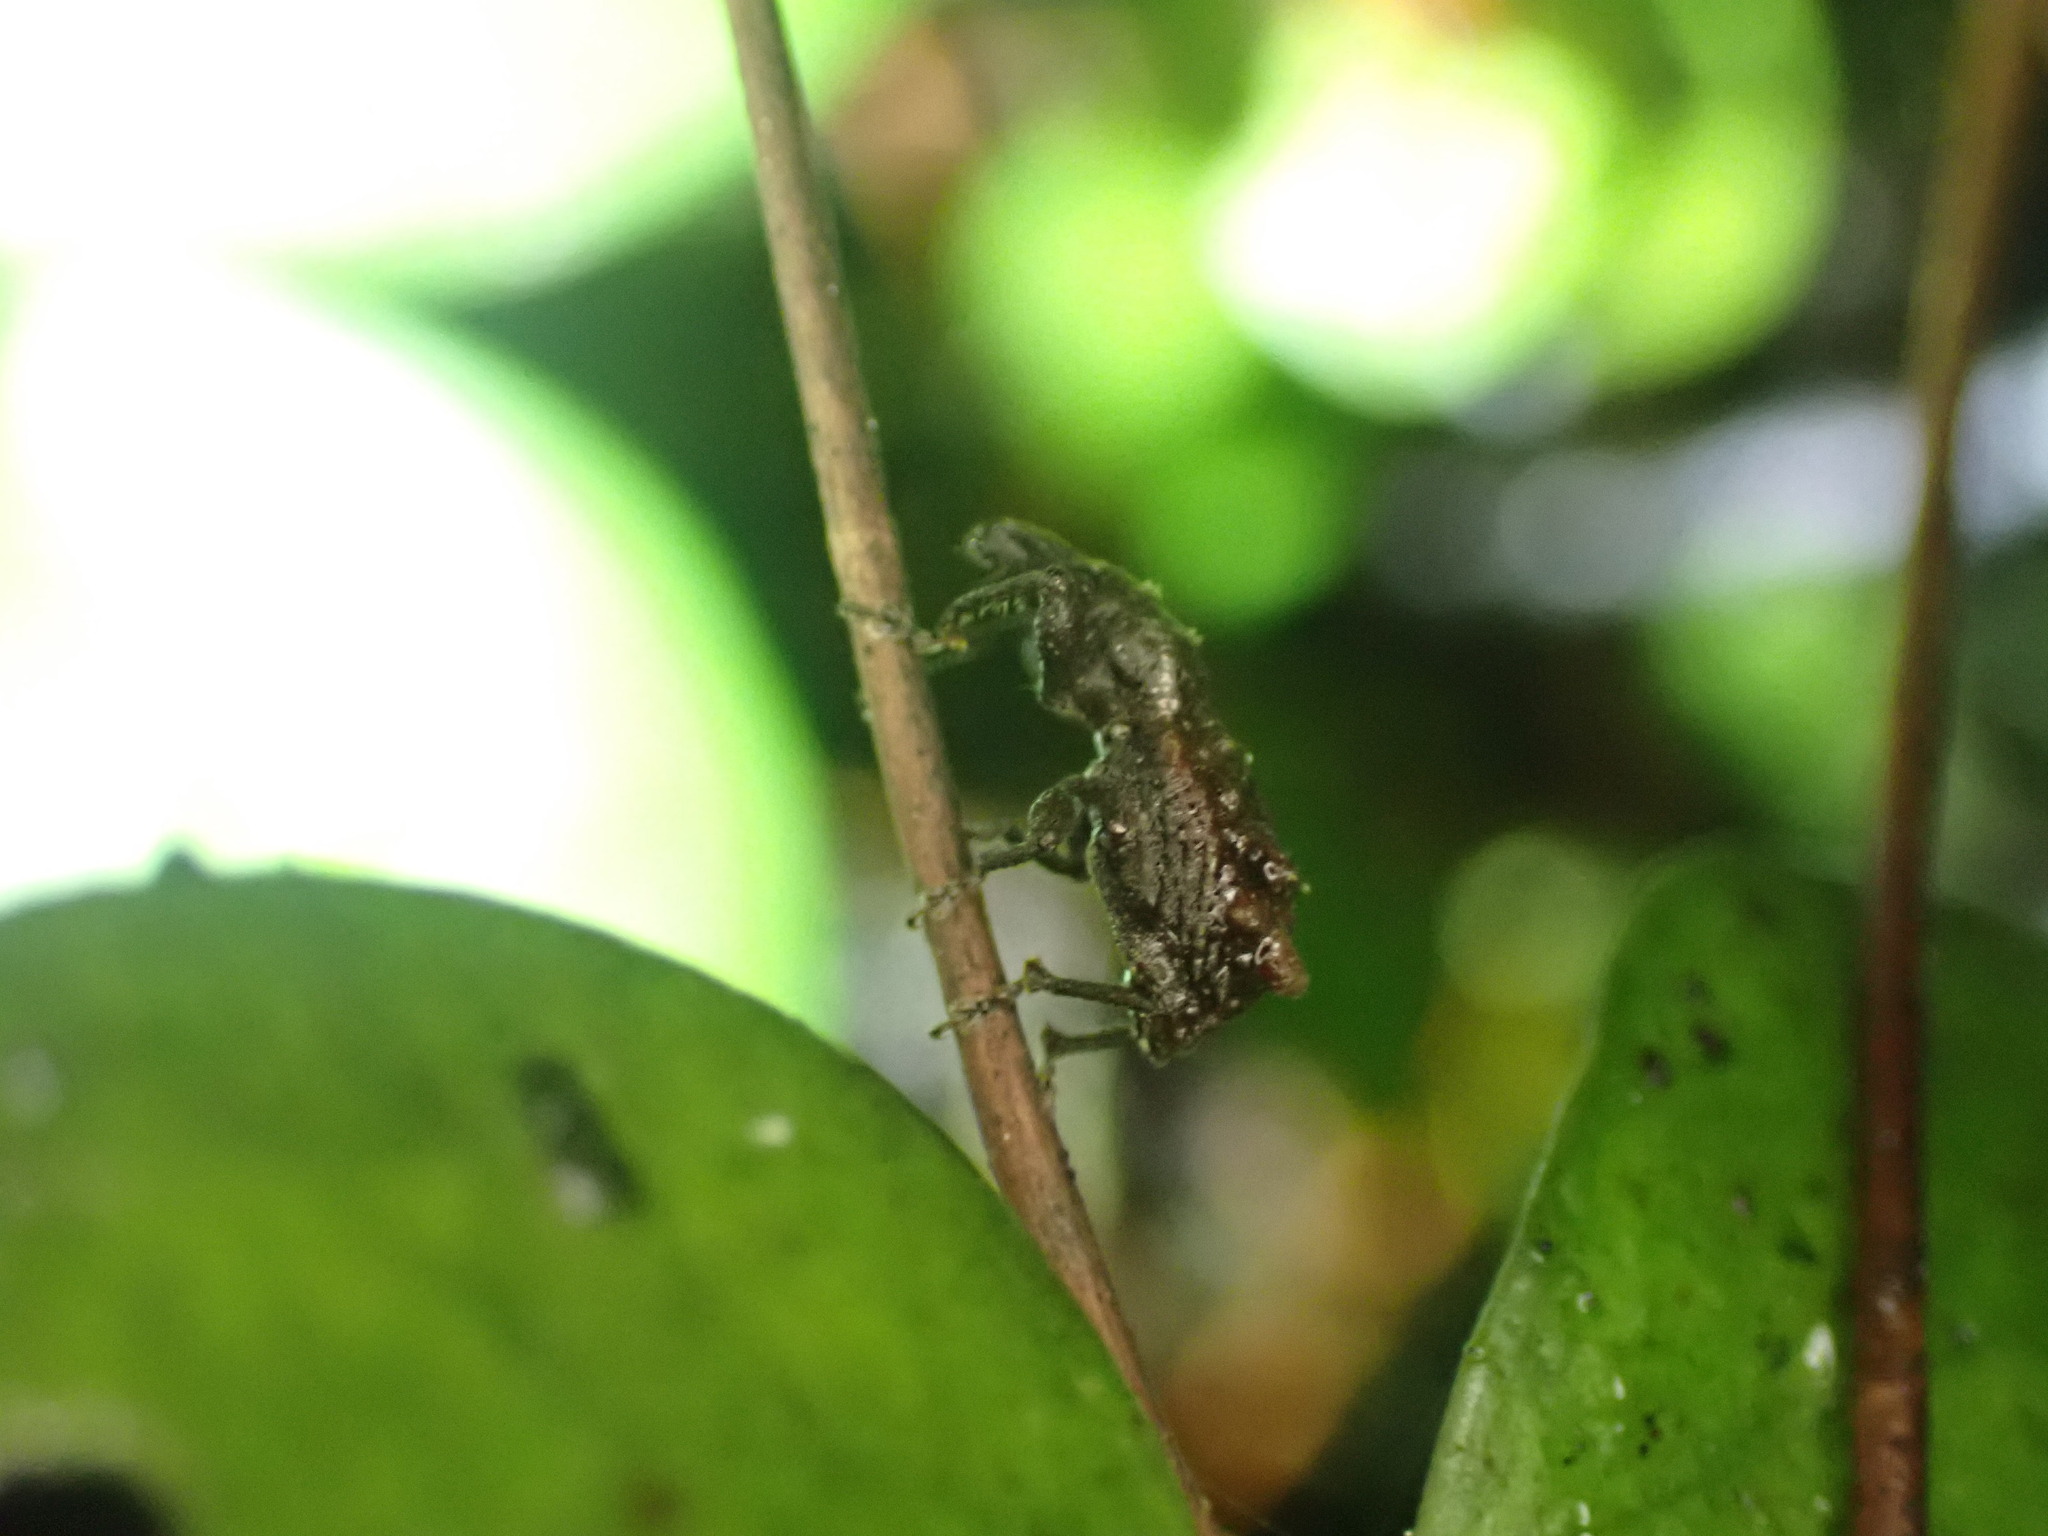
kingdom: Animalia
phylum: Arthropoda
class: Insecta
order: Coleoptera
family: Curculionidae
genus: Catoptes
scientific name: Catoptes coronatus
